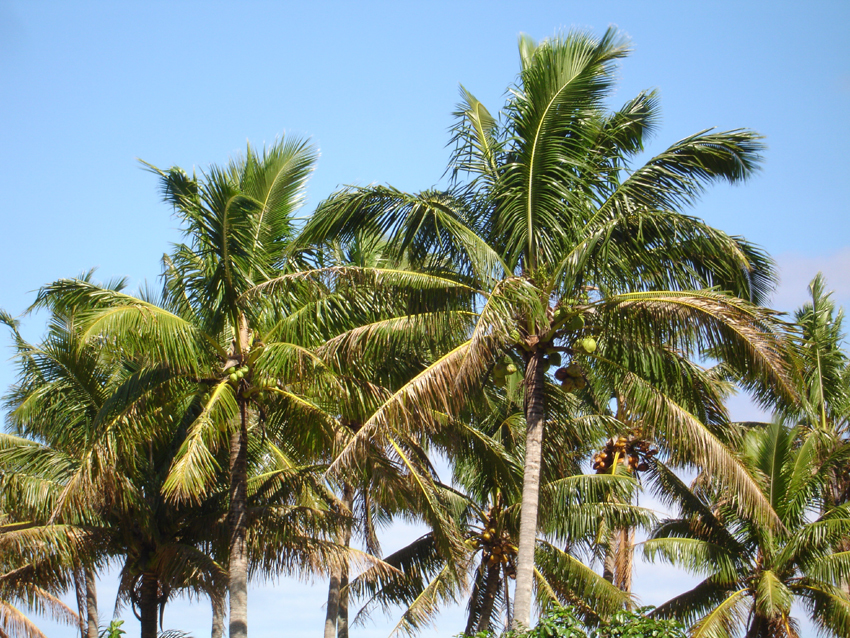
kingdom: Plantae
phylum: Tracheophyta
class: Liliopsida
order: Arecales
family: Arecaceae
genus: Cocos
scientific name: Cocos nucifera
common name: Coconut palm
